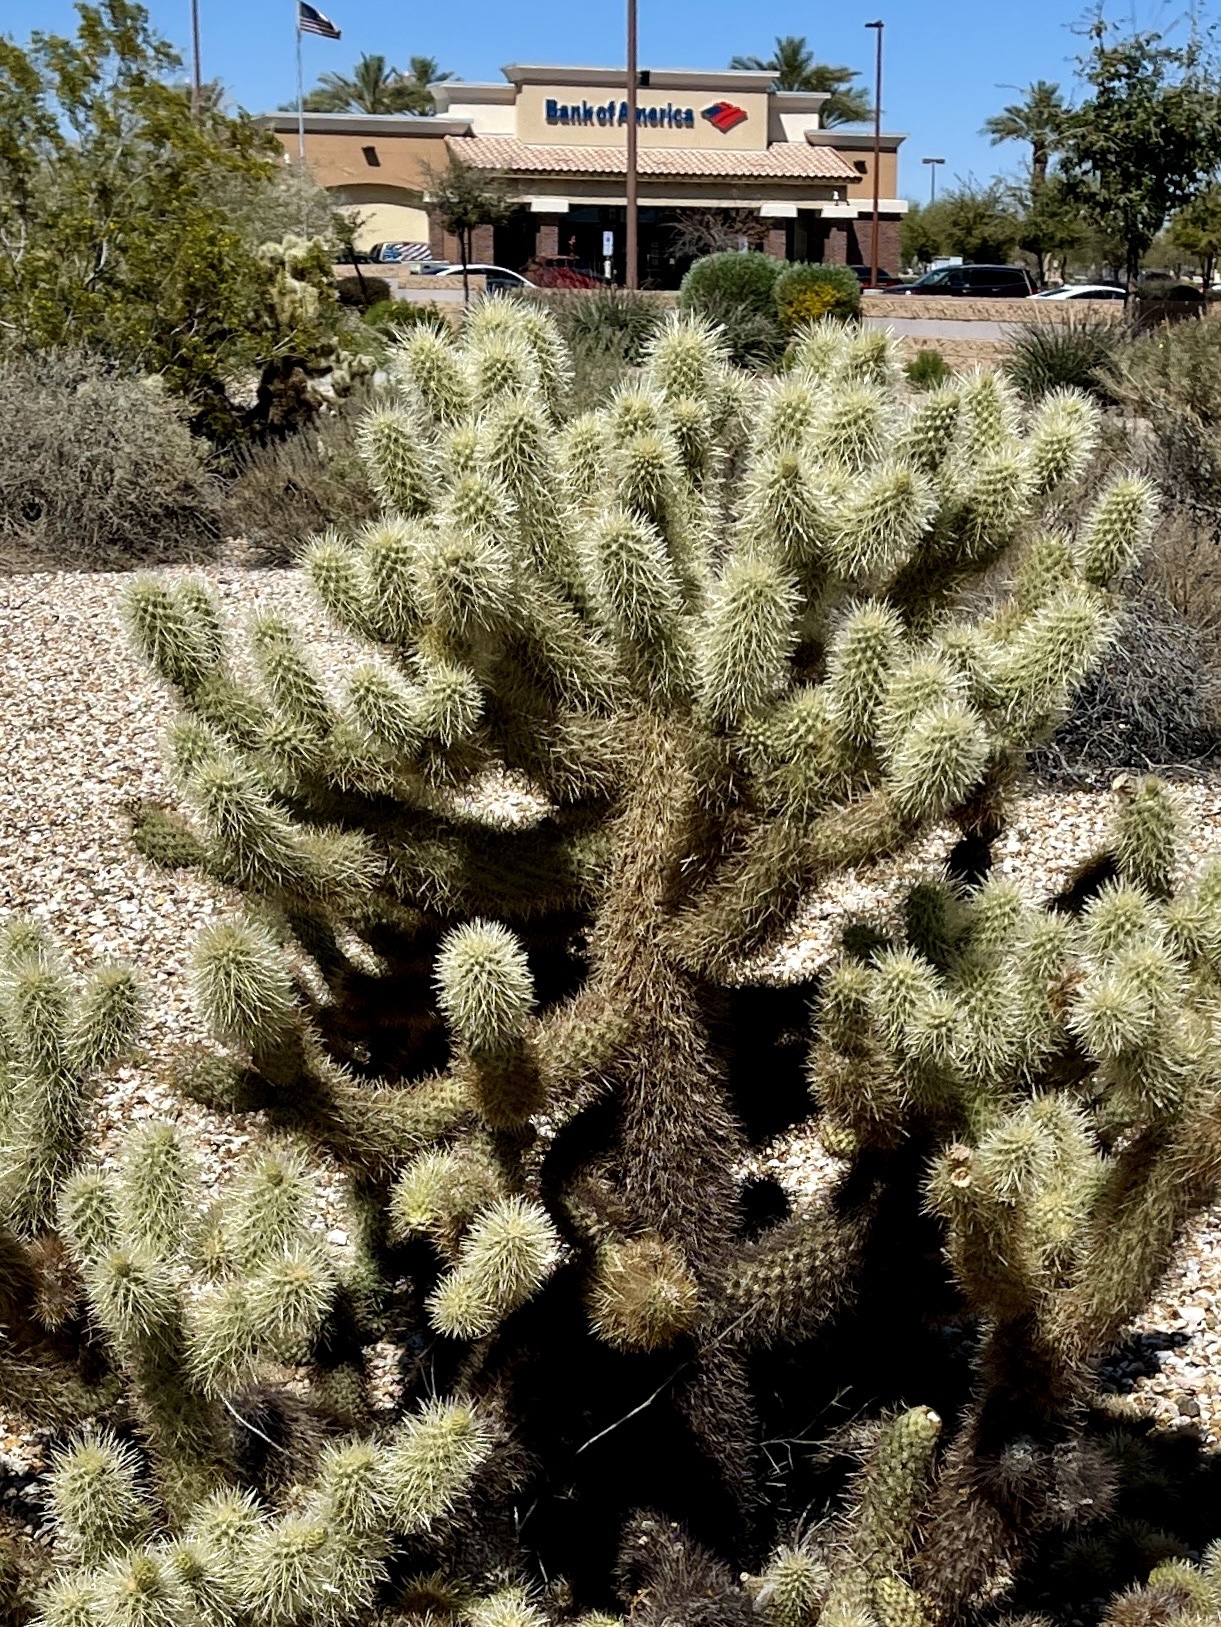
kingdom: Plantae
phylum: Tracheophyta
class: Magnoliopsida
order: Caryophyllales
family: Cactaceae
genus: Cylindropuntia
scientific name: Cylindropuntia fosbergii
